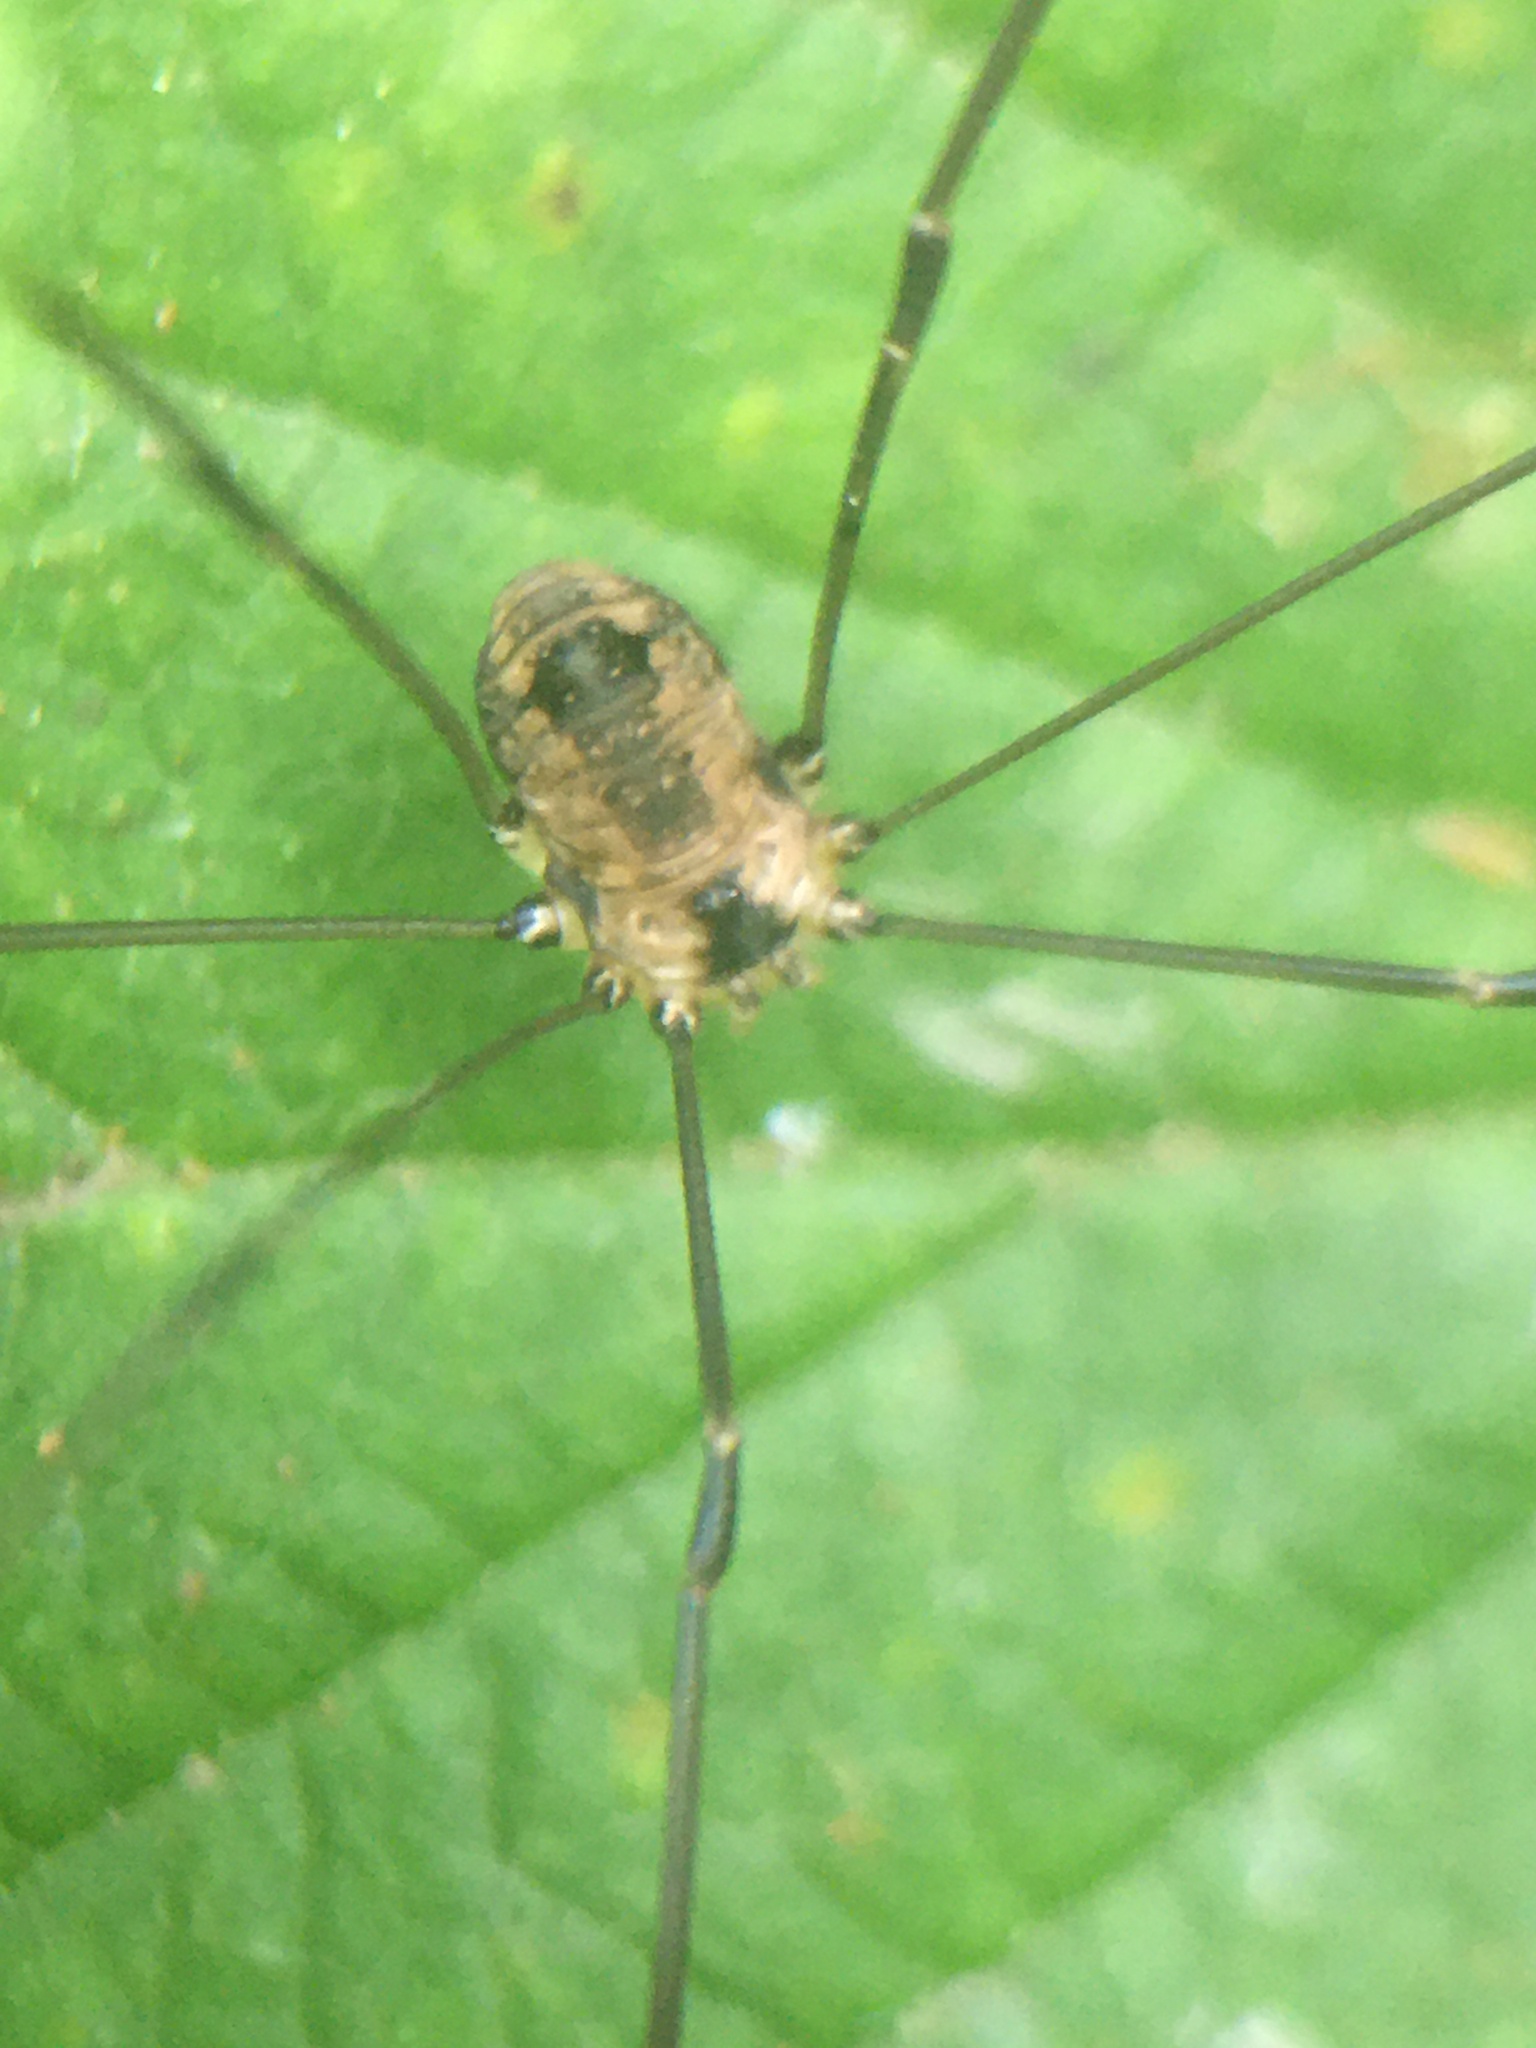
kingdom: Animalia
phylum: Arthropoda
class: Arachnida
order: Opiliones
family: Sclerosomatidae
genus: Leiobunum
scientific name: Leiobunum rotundum
